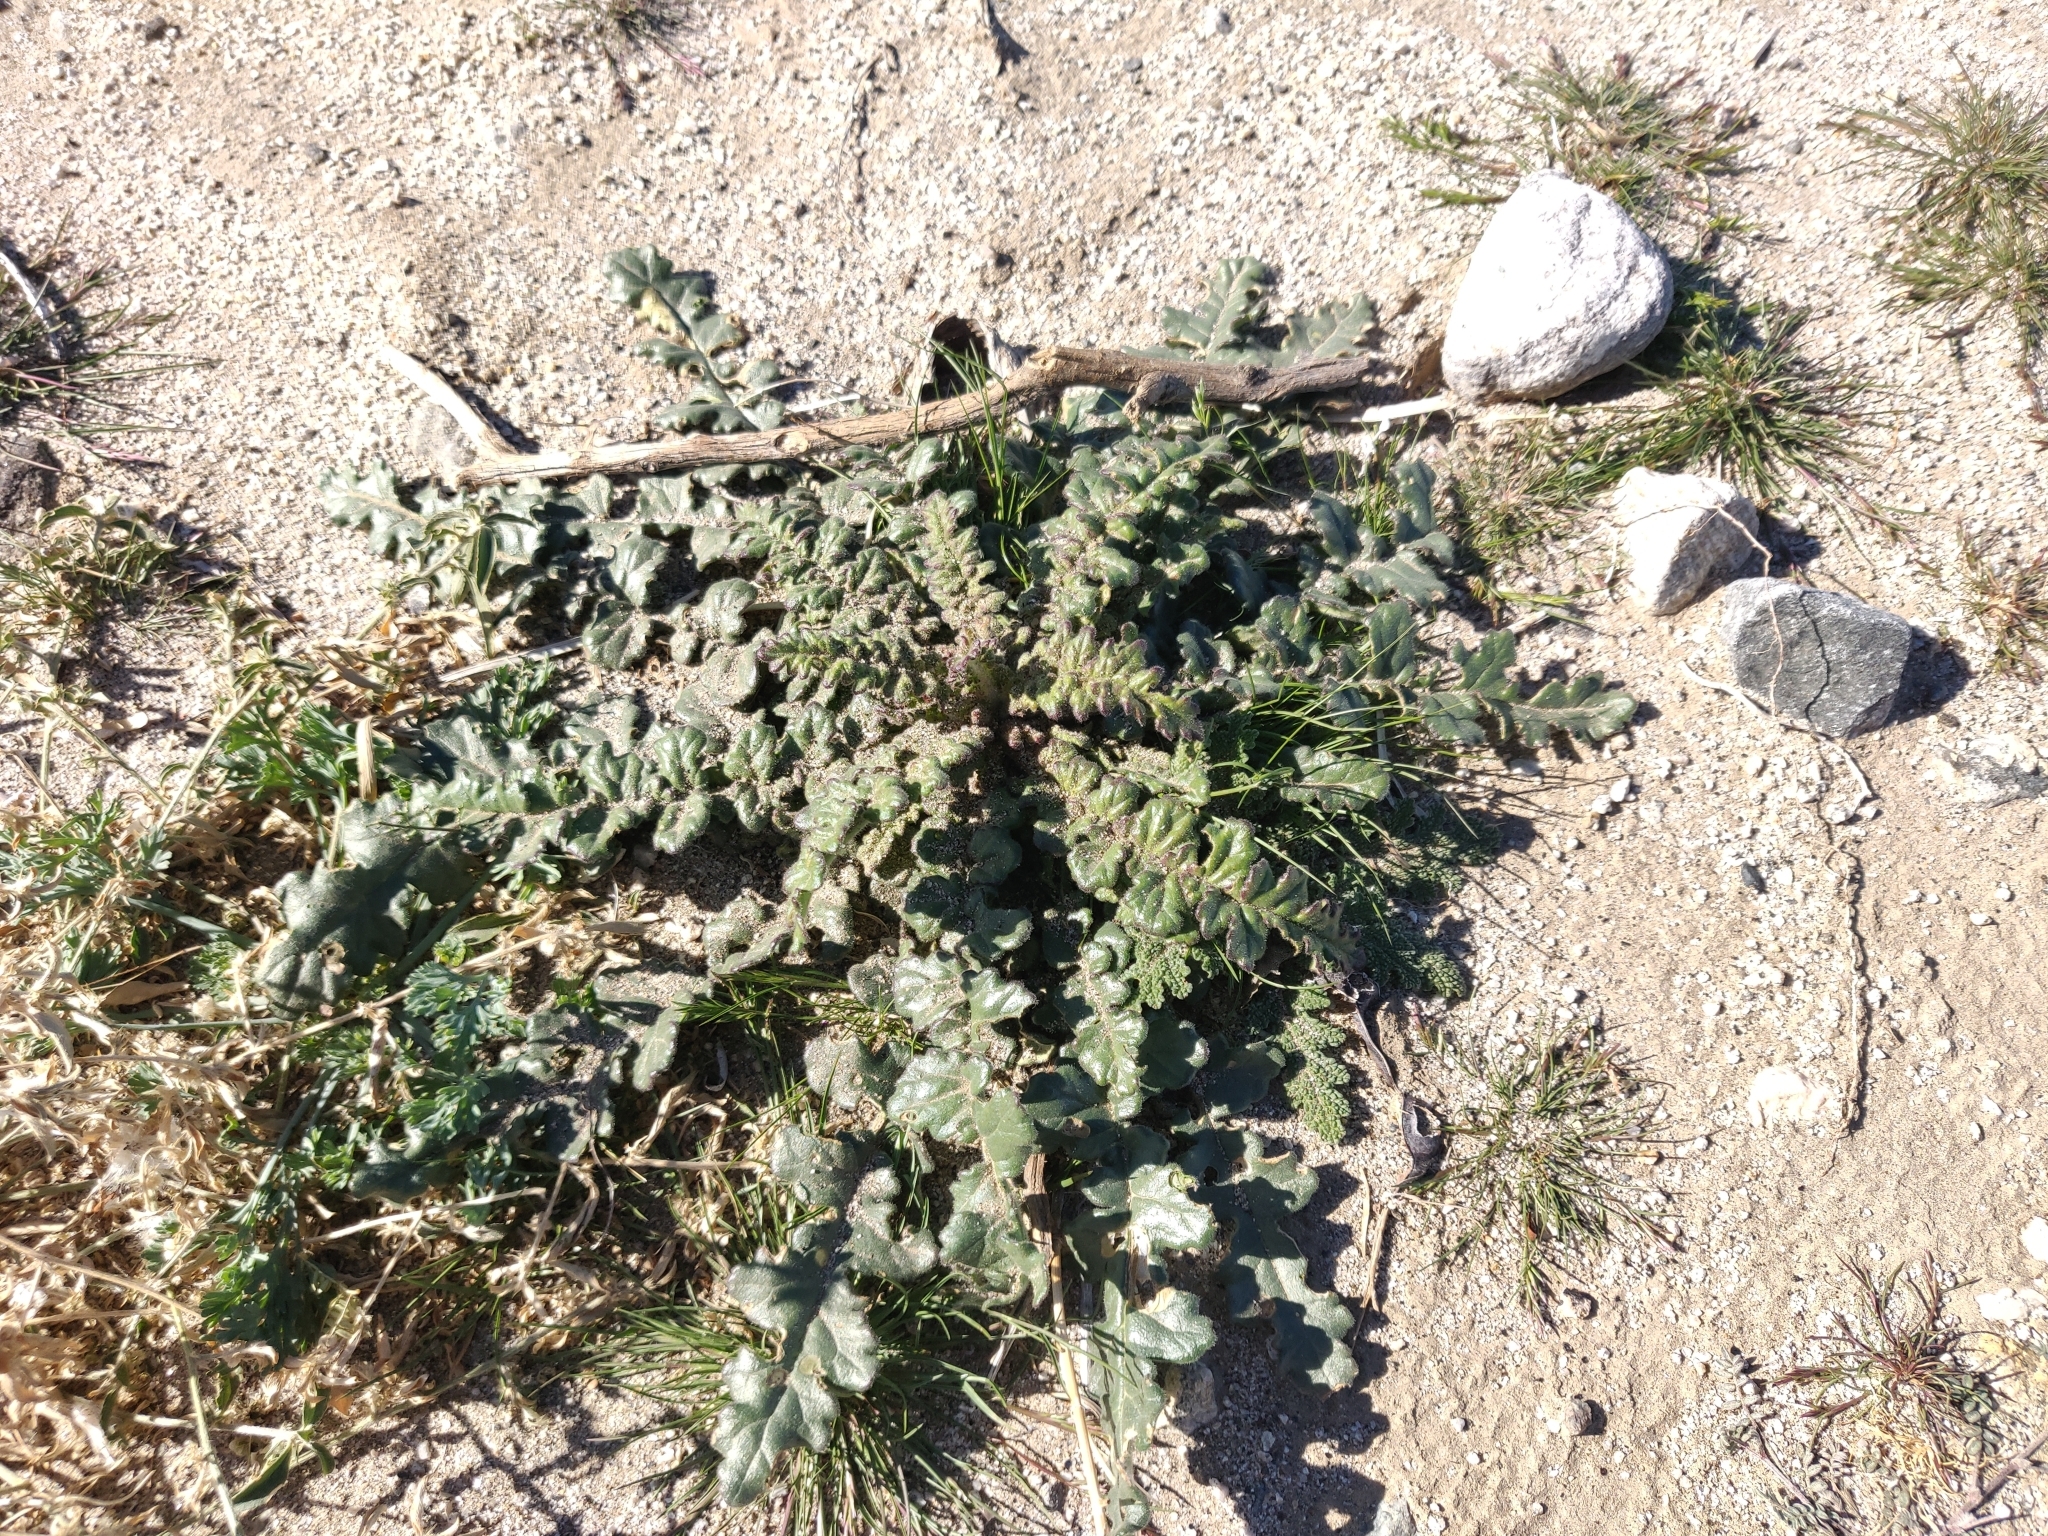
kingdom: Plantae
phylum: Tracheophyta
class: Magnoliopsida
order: Boraginales
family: Hydrophyllaceae
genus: Phacelia
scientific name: Phacelia crenulata
